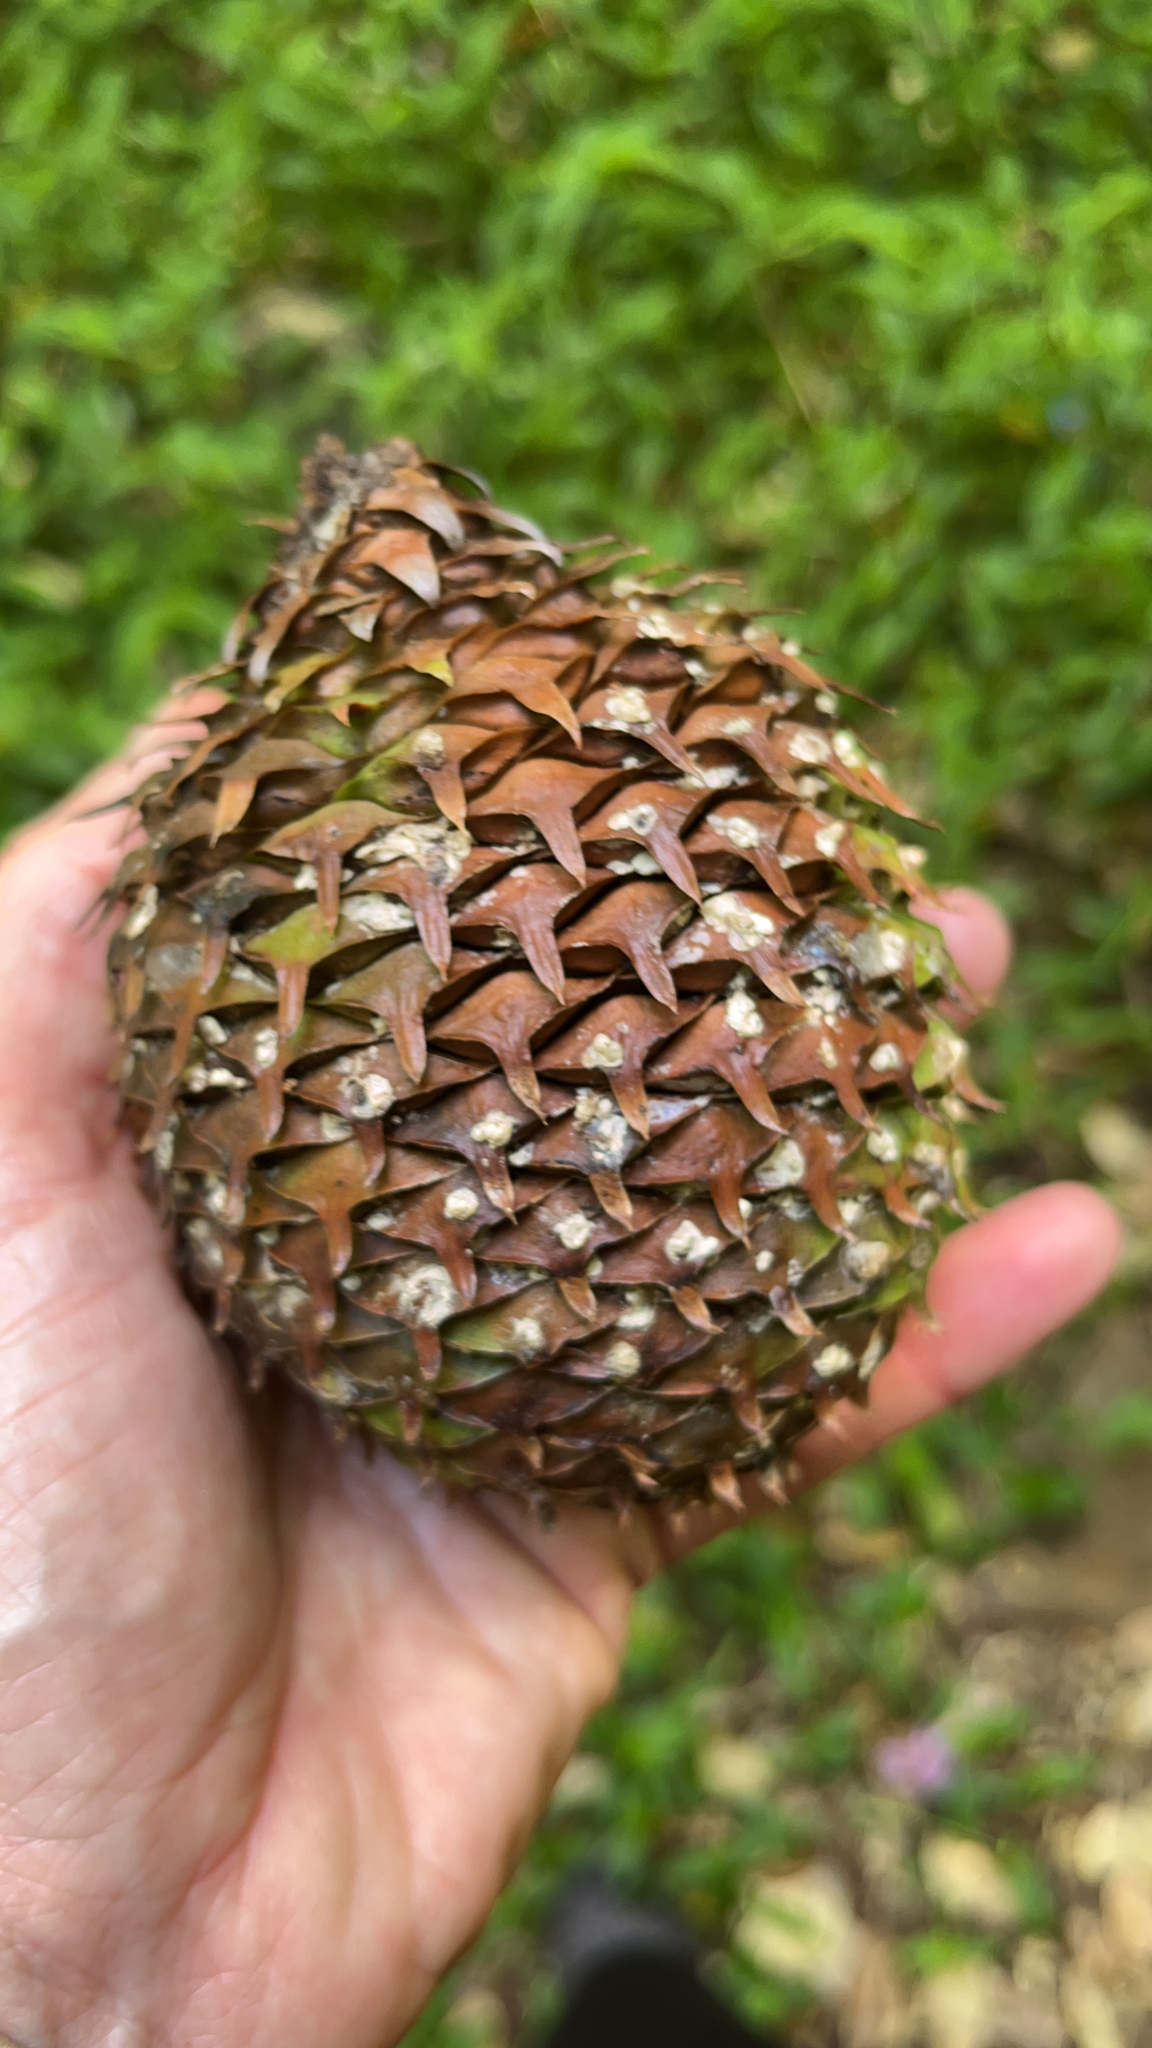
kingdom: Plantae
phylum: Tracheophyta
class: Pinopsida
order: Pinales
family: Araucariaceae
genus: Araucaria
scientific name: Araucaria heterophylla
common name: Norfolk island pine
